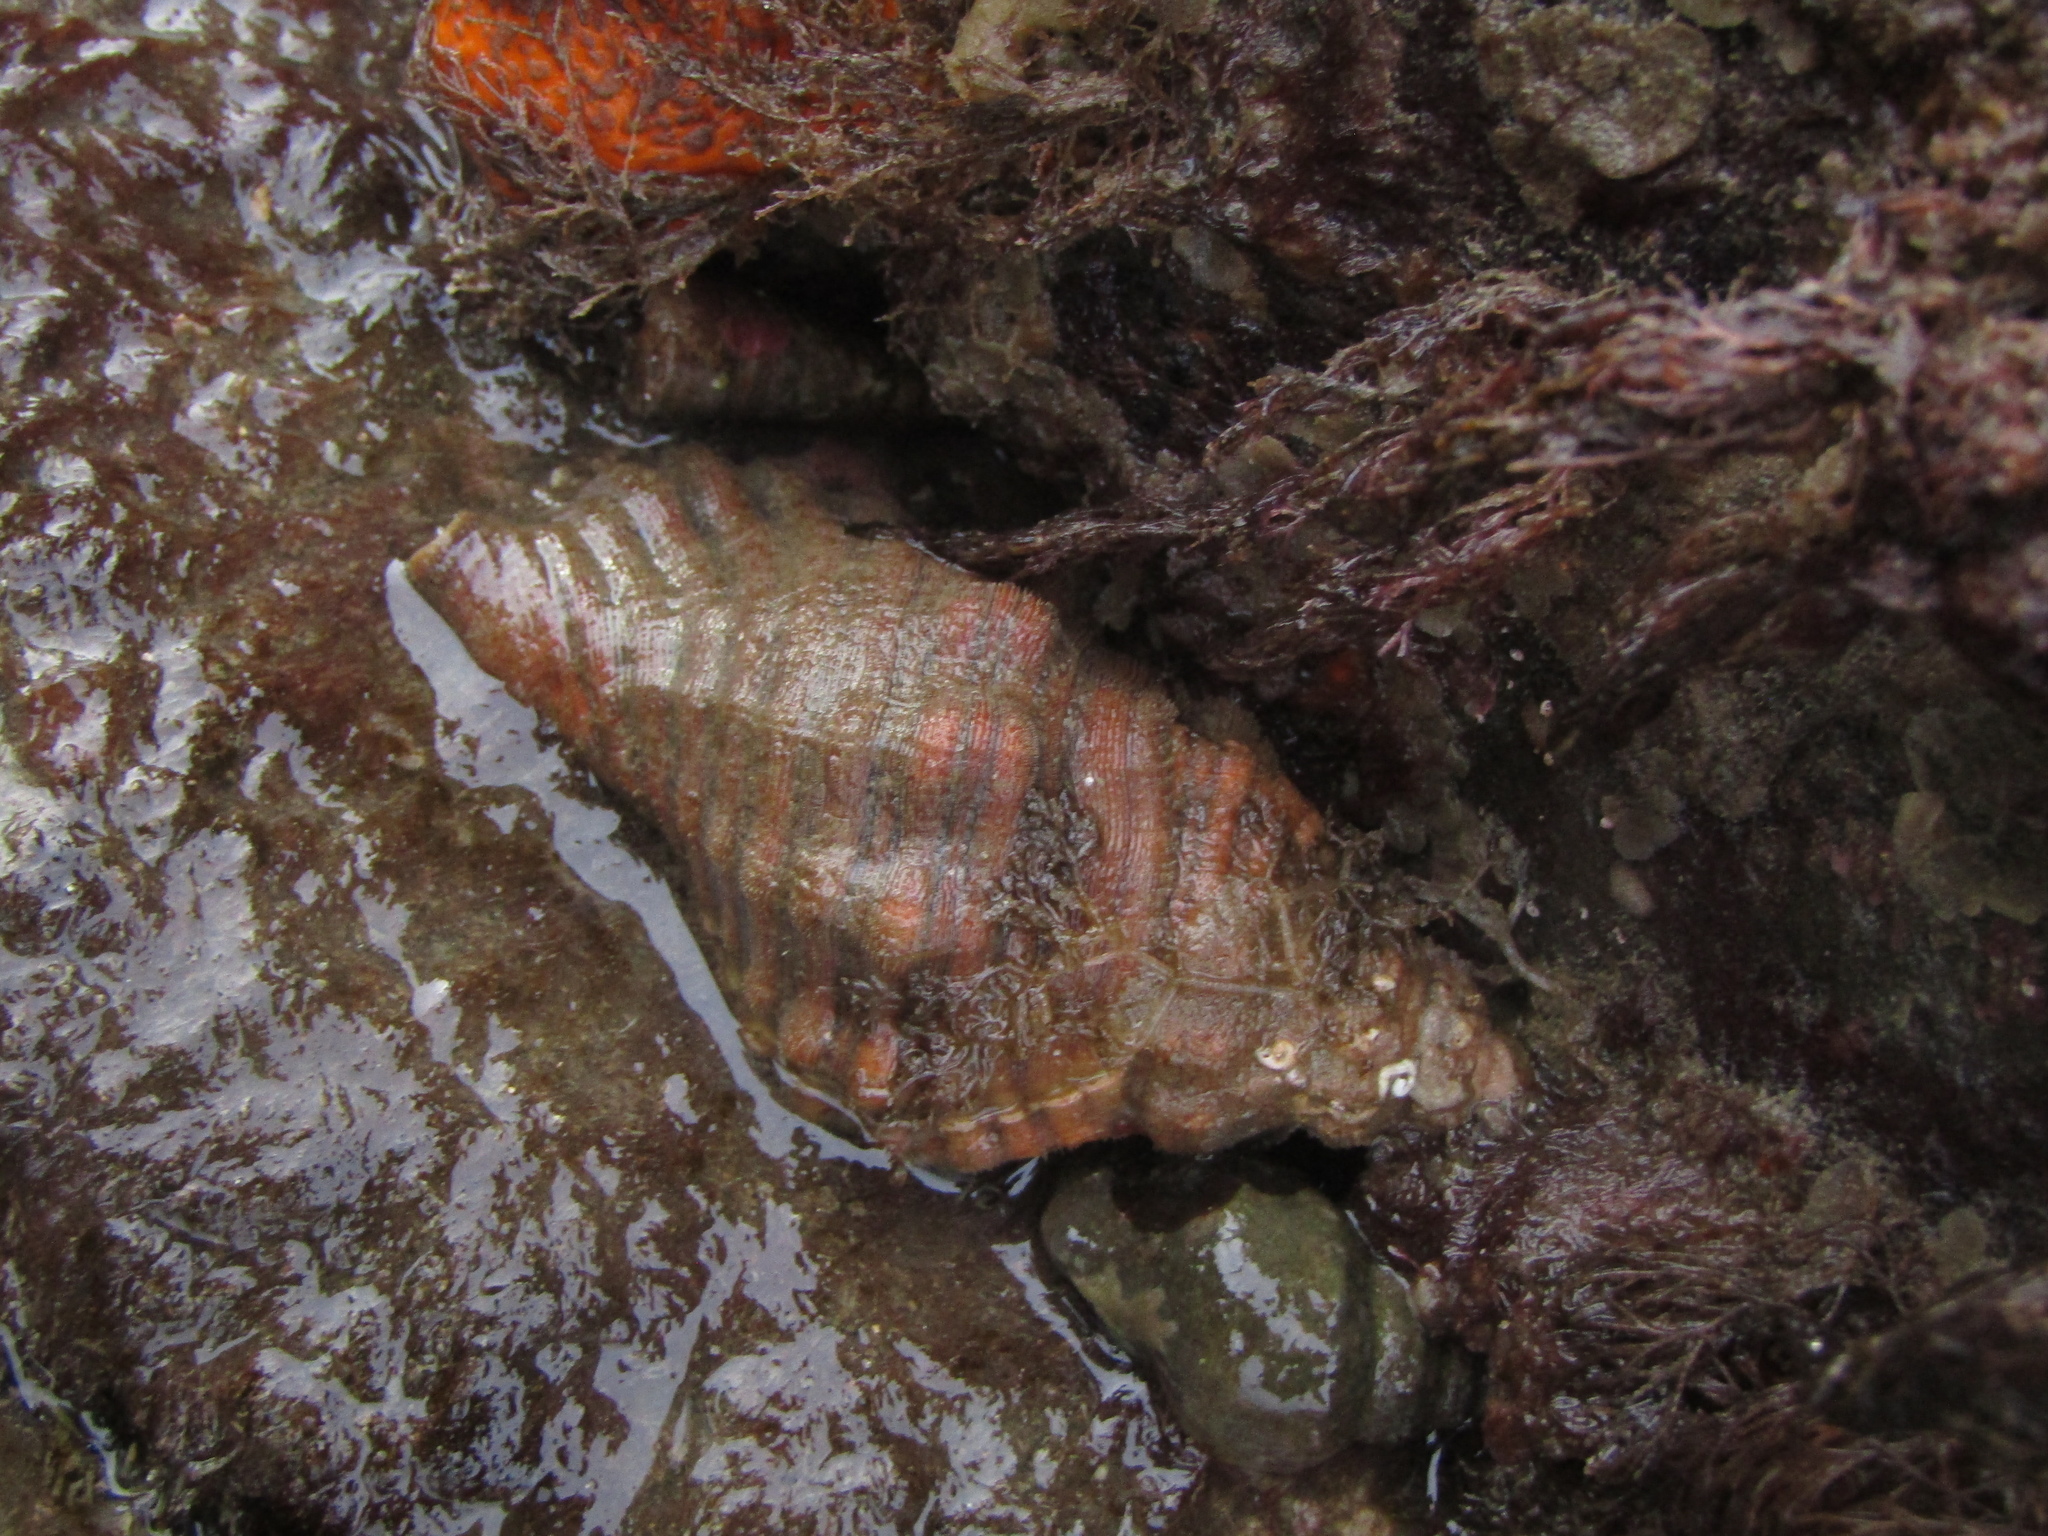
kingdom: Animalia
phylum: Mollusca
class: Gastropoda
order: Littorinimorpha
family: Cymatiidae
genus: Cabestana
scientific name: Cabestana spengleri
